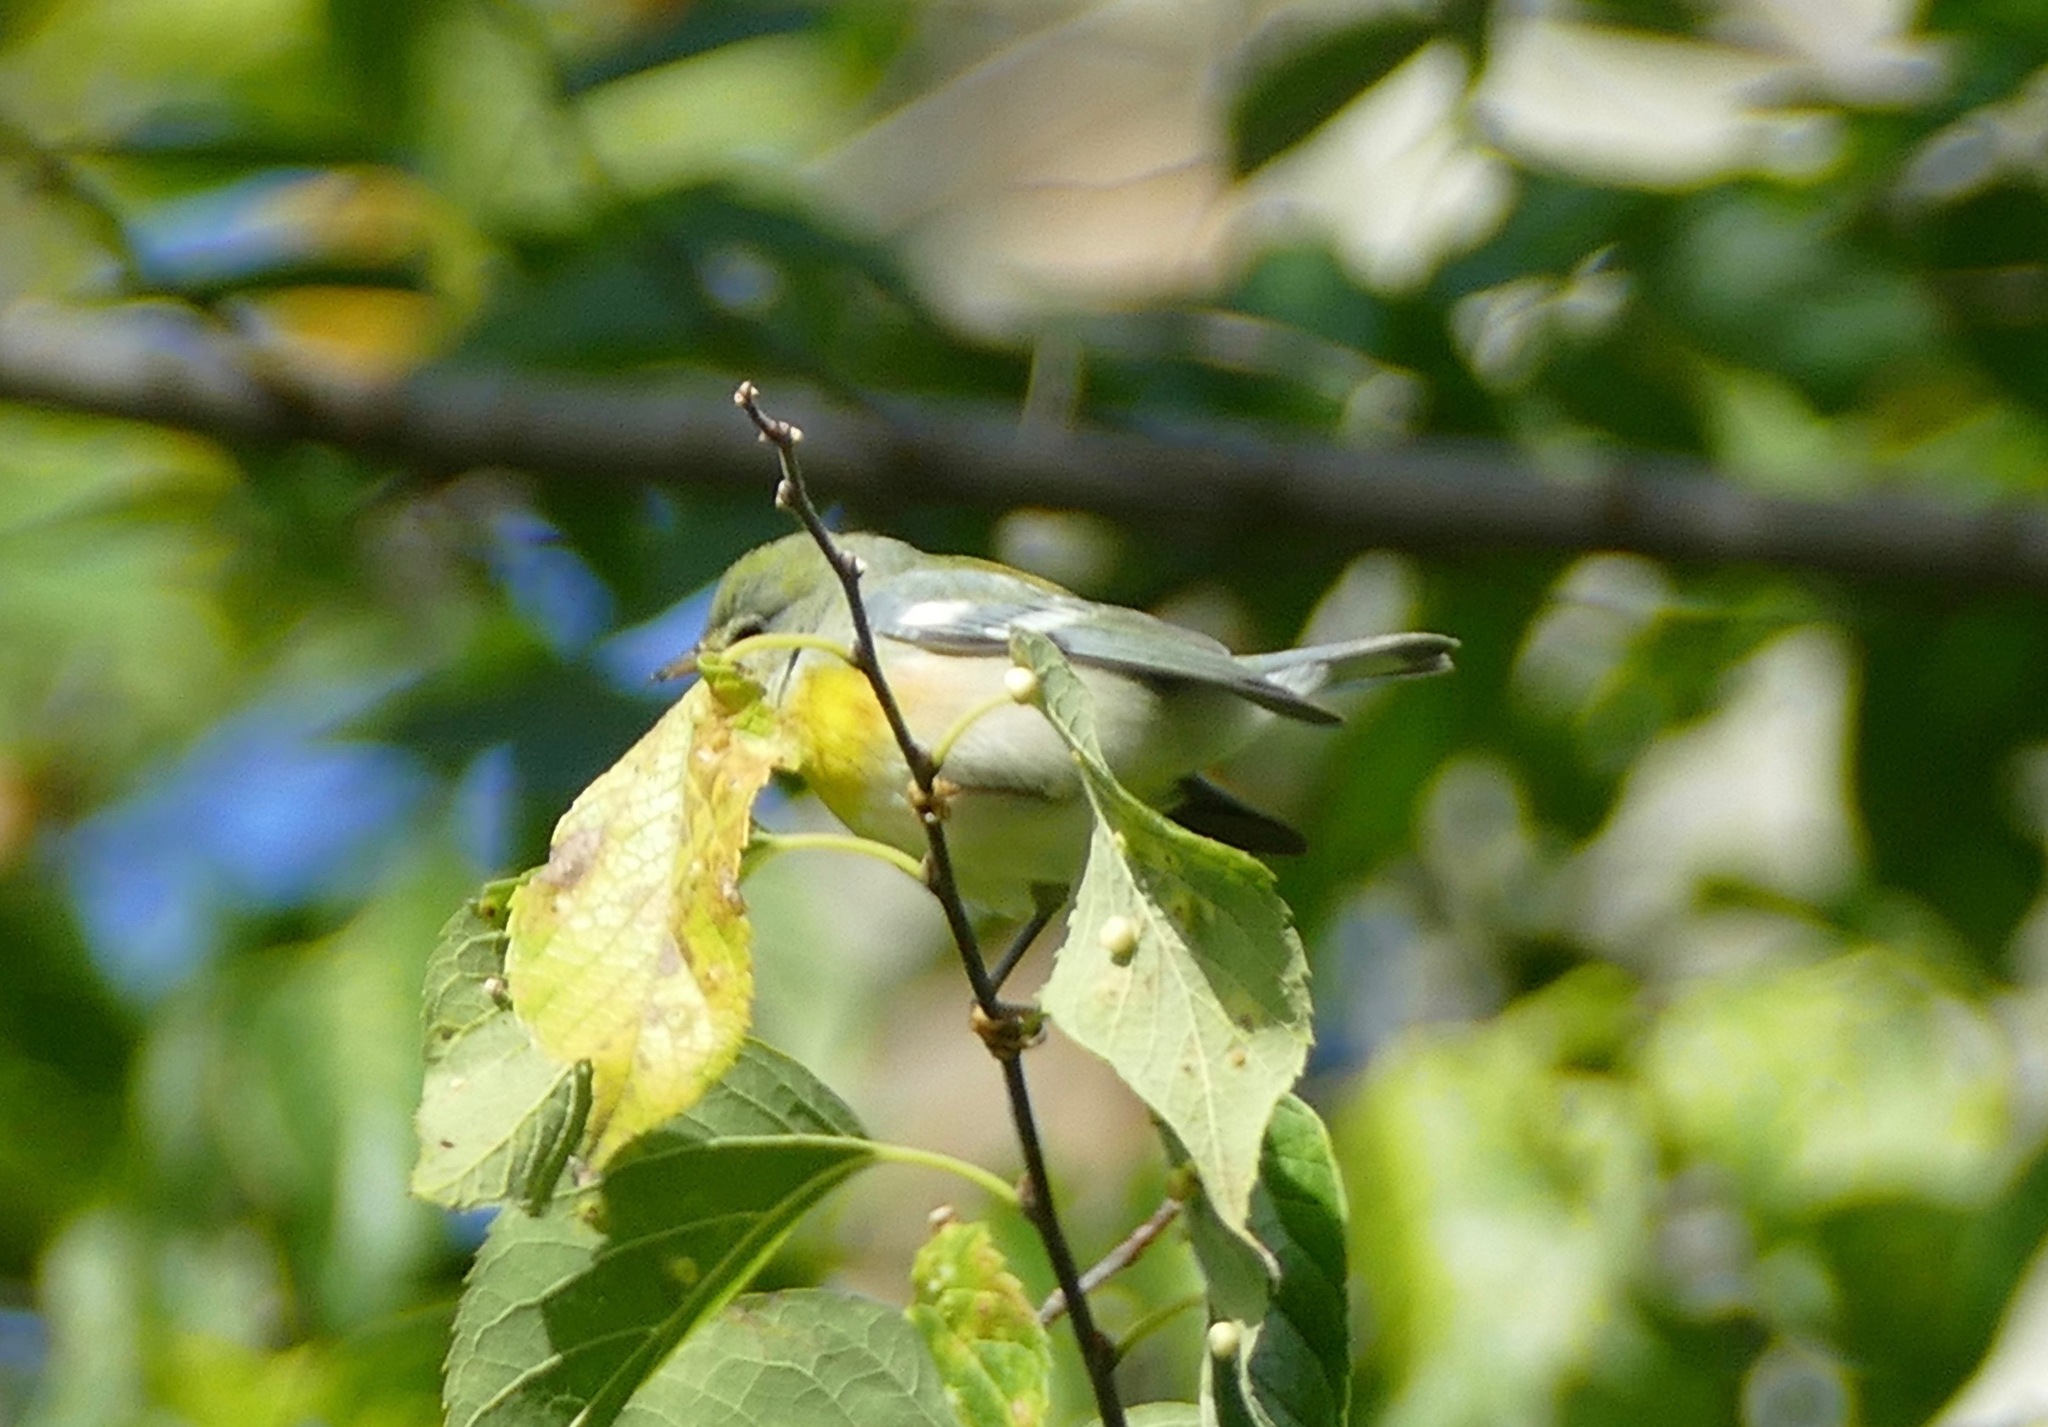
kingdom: Animalia
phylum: Chordata
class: Aves
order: Passeriformes
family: Parulidae
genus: Setophaga
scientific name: Setophaga americana
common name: Northern parula
